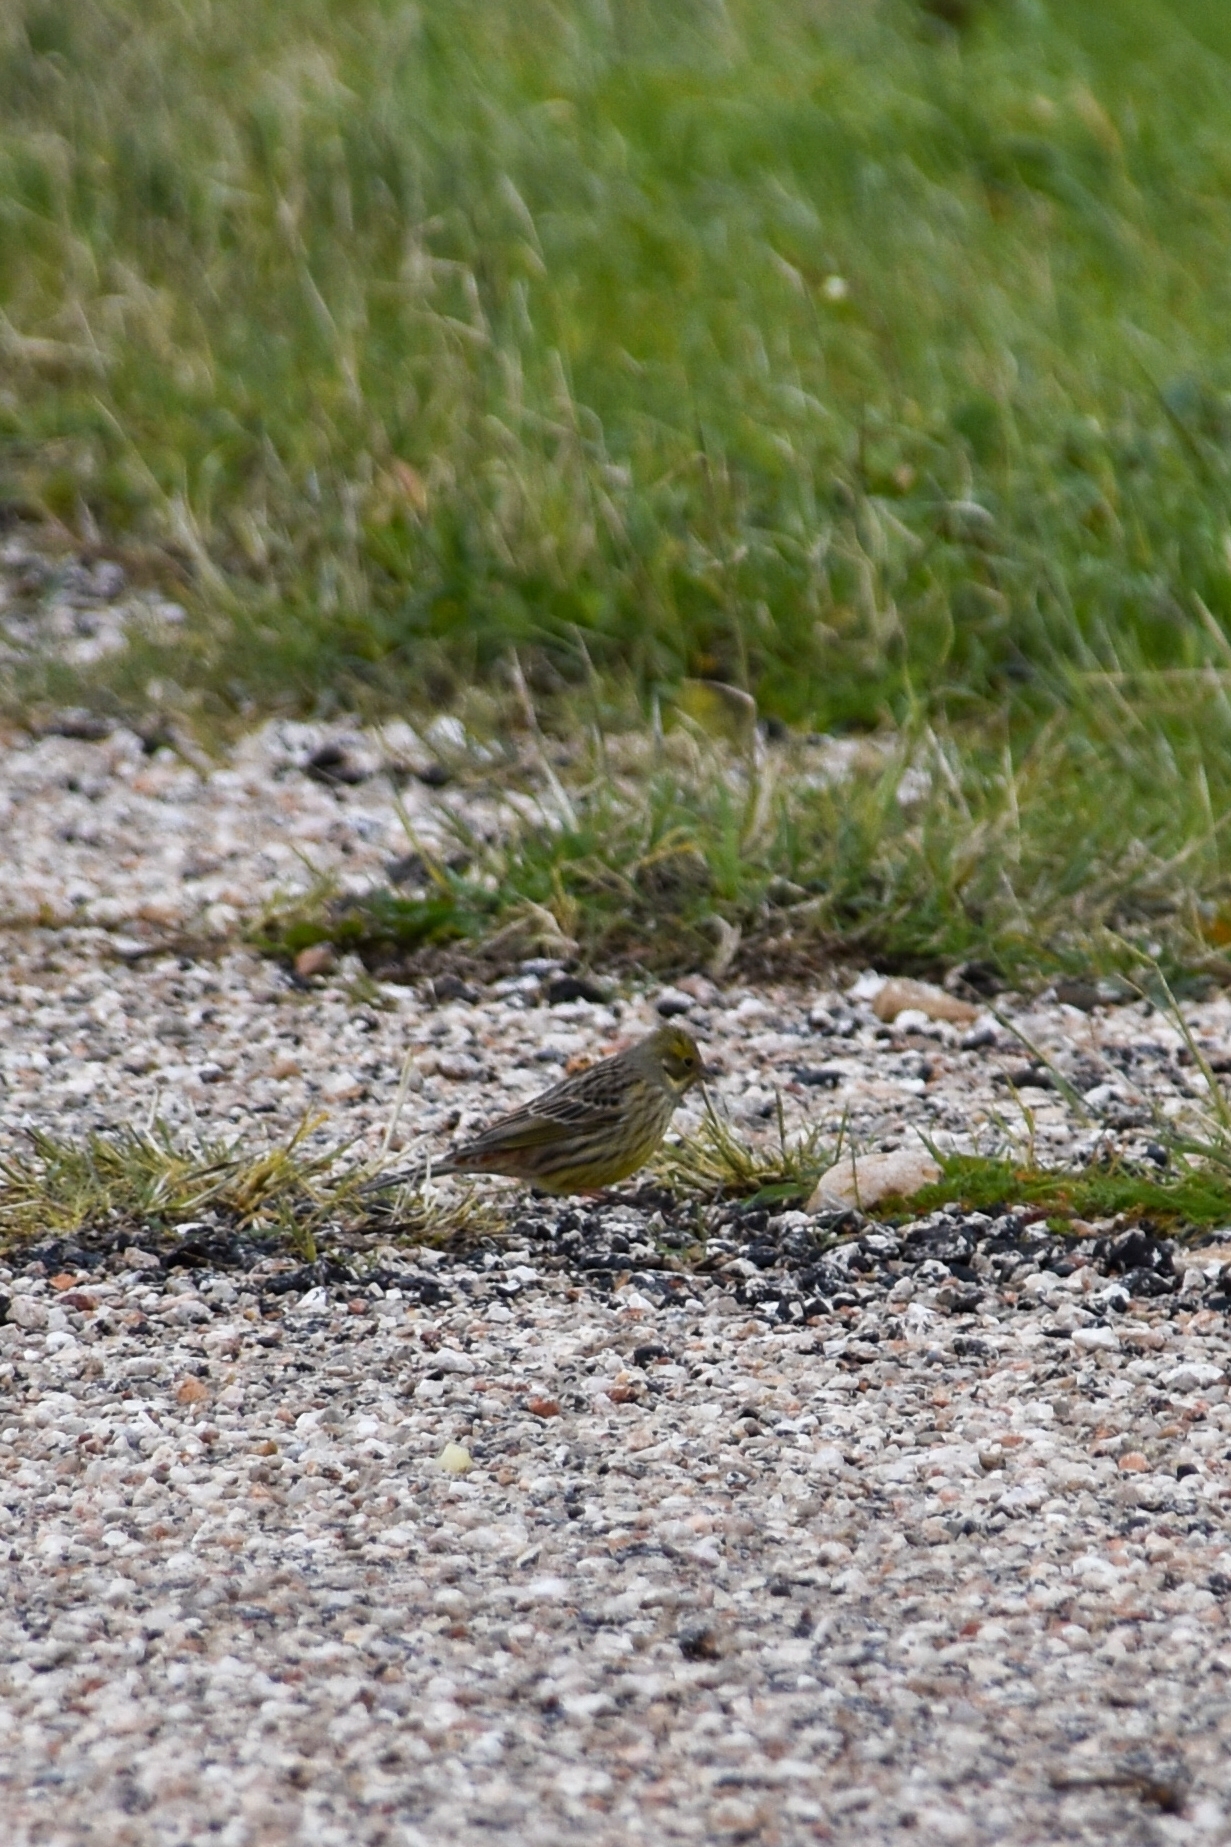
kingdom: Animalia
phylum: Chordata
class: Aves
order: Passeriformes
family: Emberizidae
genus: Emberiza
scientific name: Emberiza citrinella
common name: Yellowhammer
